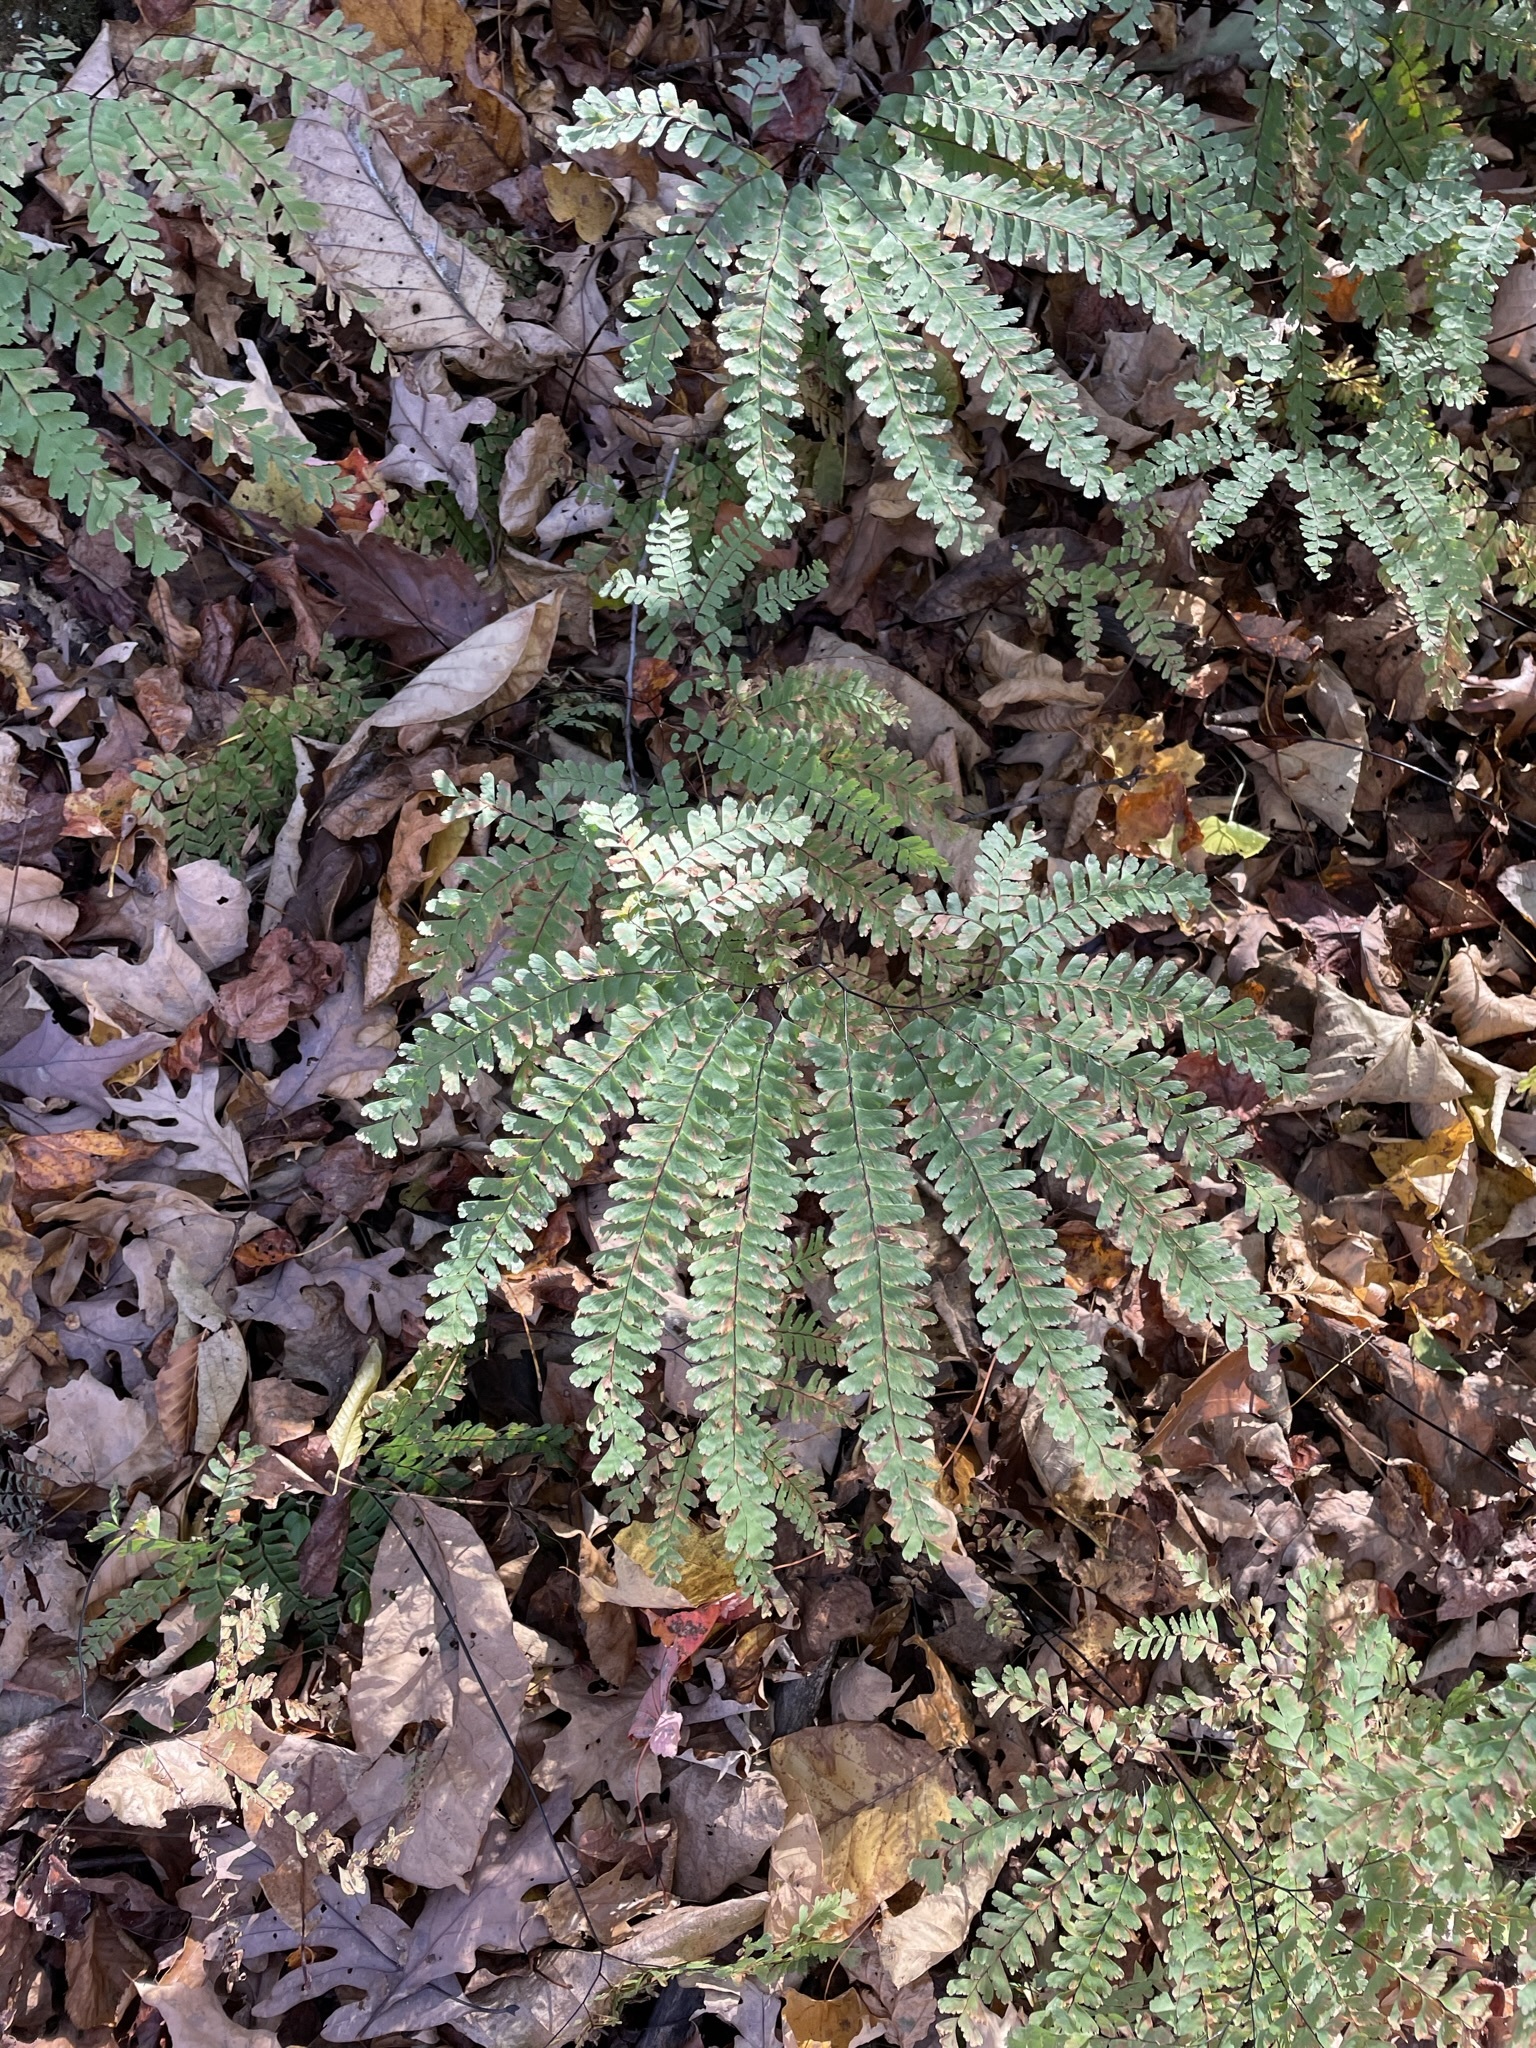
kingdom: Plantae
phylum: Tracheophyta
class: Polypodiopsida
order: Polypodiales
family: Pteridaceae
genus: Adiantum
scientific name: Adiantum pedatum
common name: Five-finger fern
